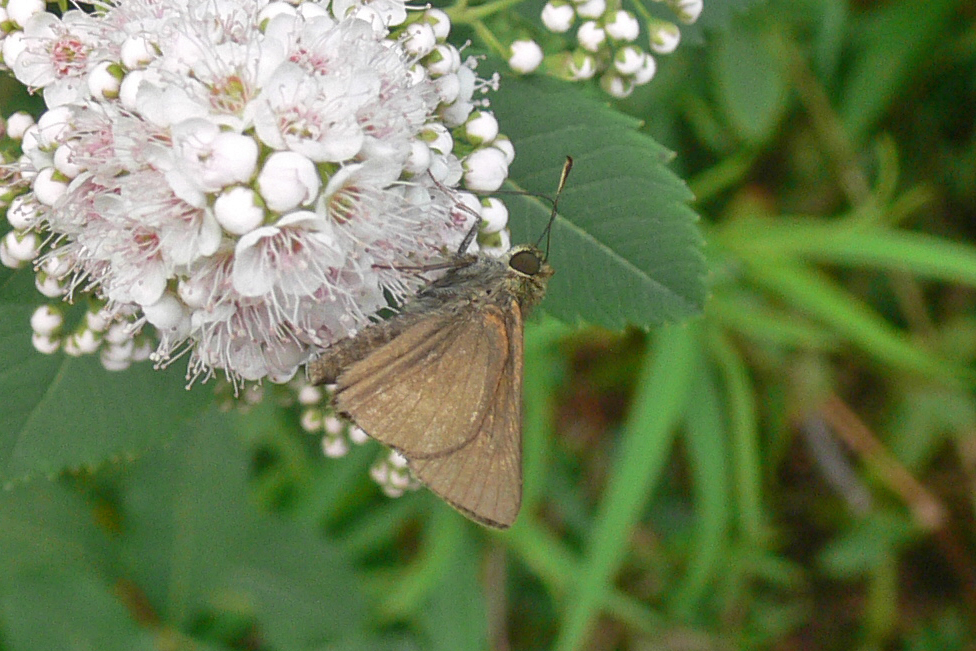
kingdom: Animalia
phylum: Arthropoda
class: Insecta
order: Lepidoptera
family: Hesperiidae
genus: Euphyes
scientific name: Euphyes vestris
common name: Dun skipper
